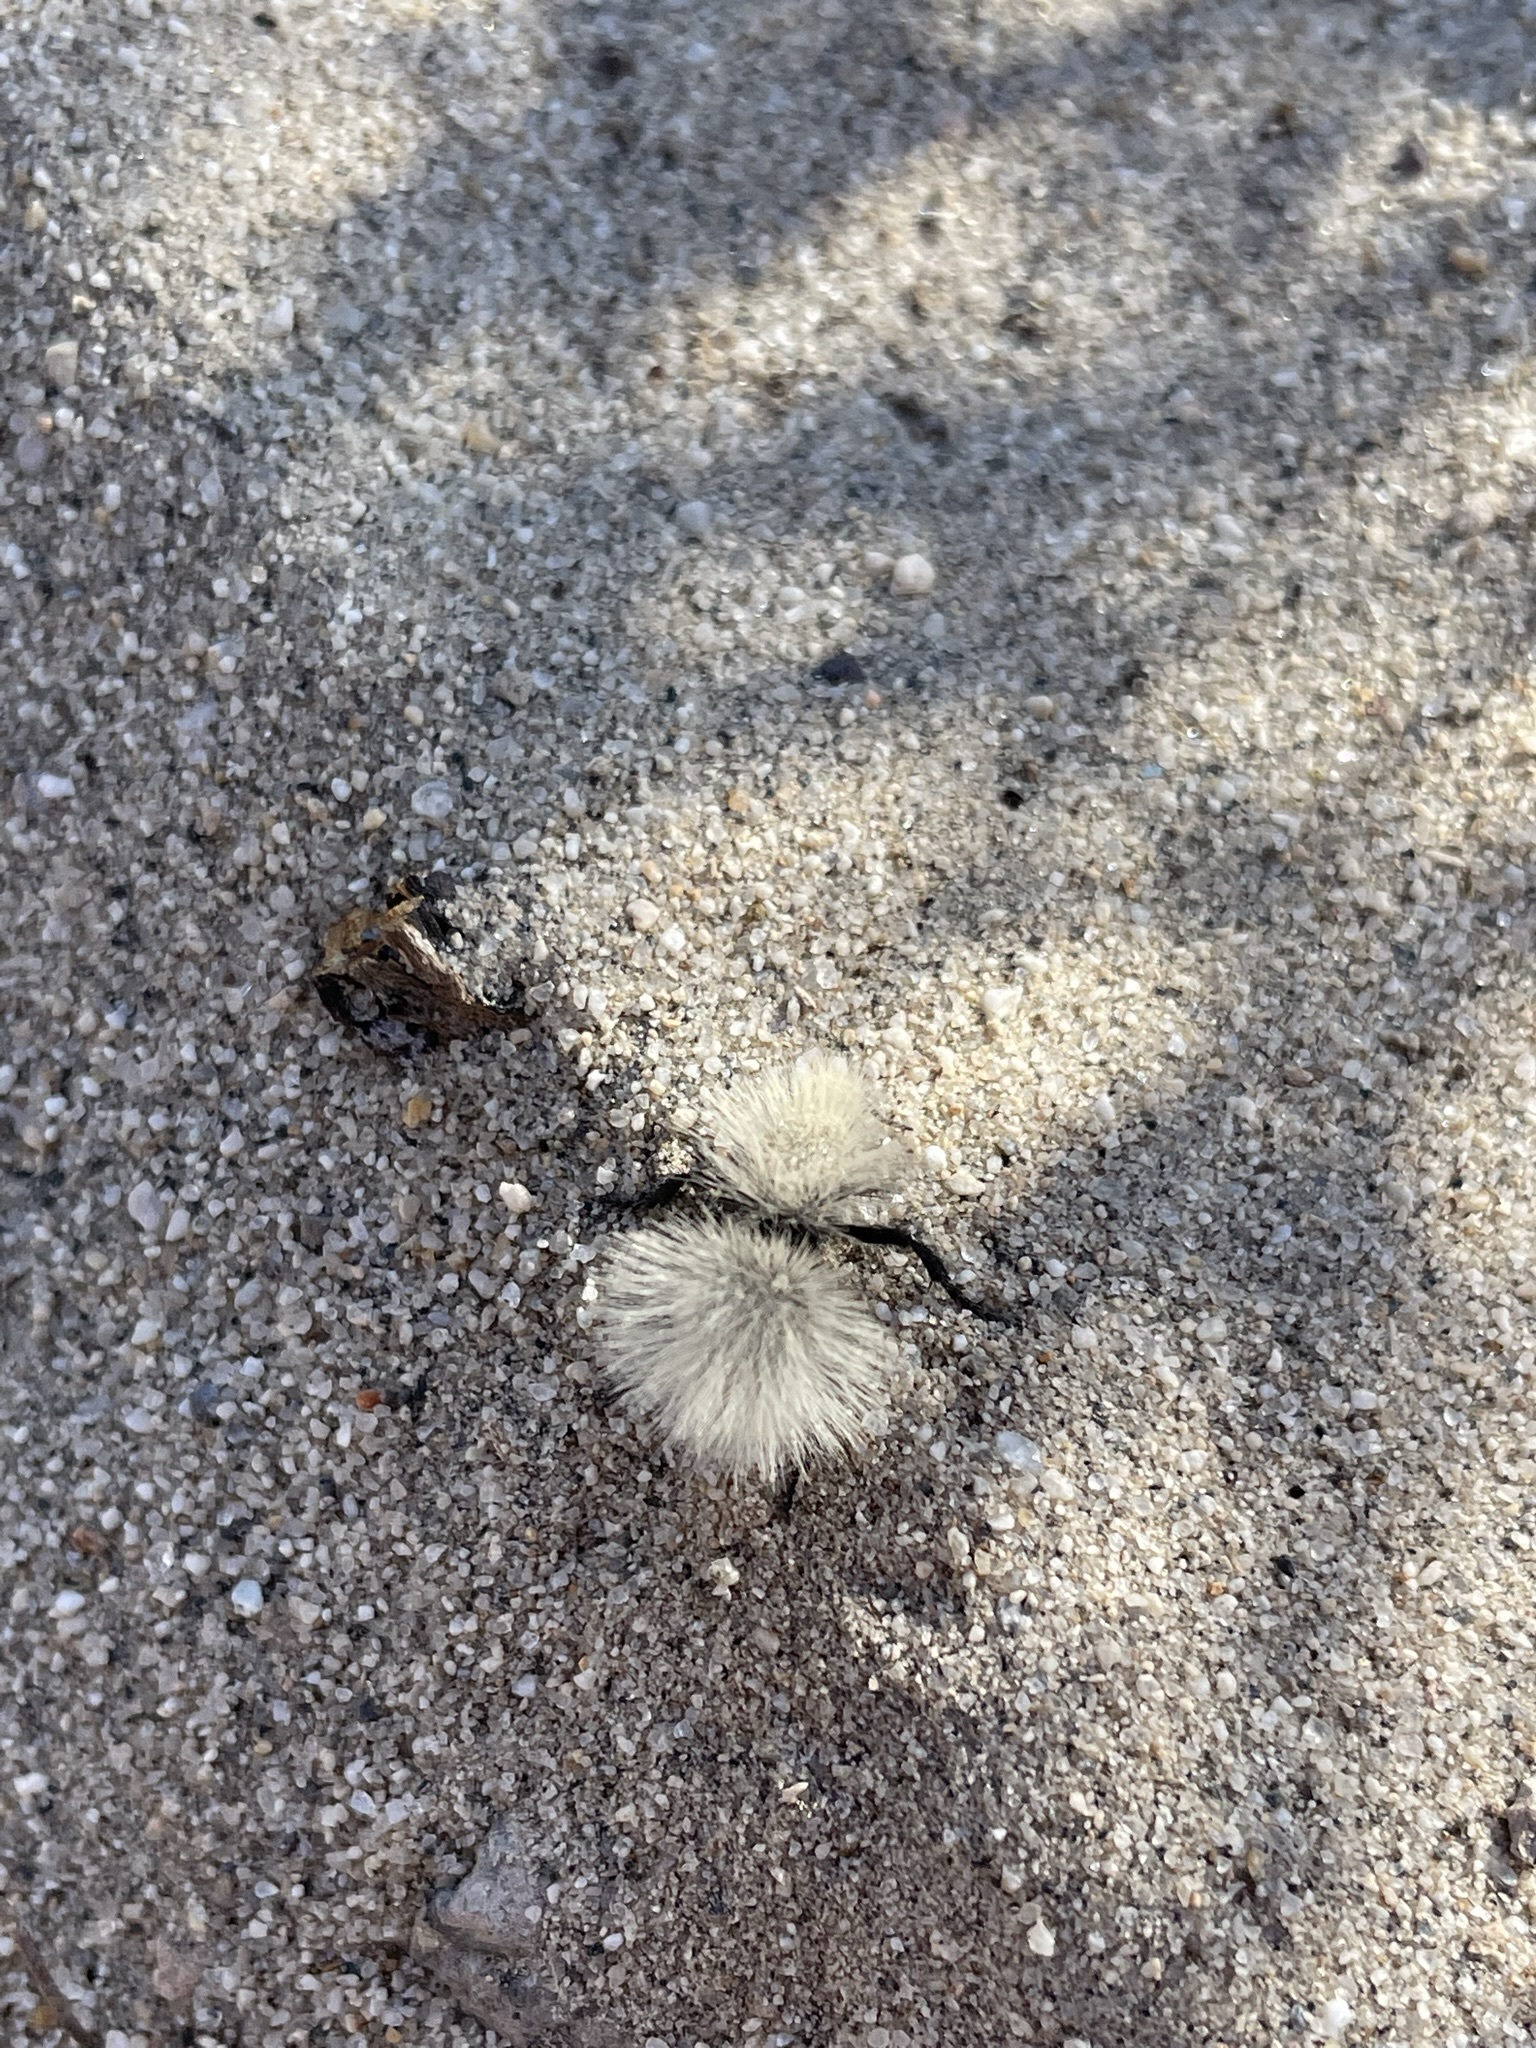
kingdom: Animalia
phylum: Arthropoda
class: Insecta
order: Hymenoptera
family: Mutillidae
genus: Dasymutilla
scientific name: Dasymutilla
